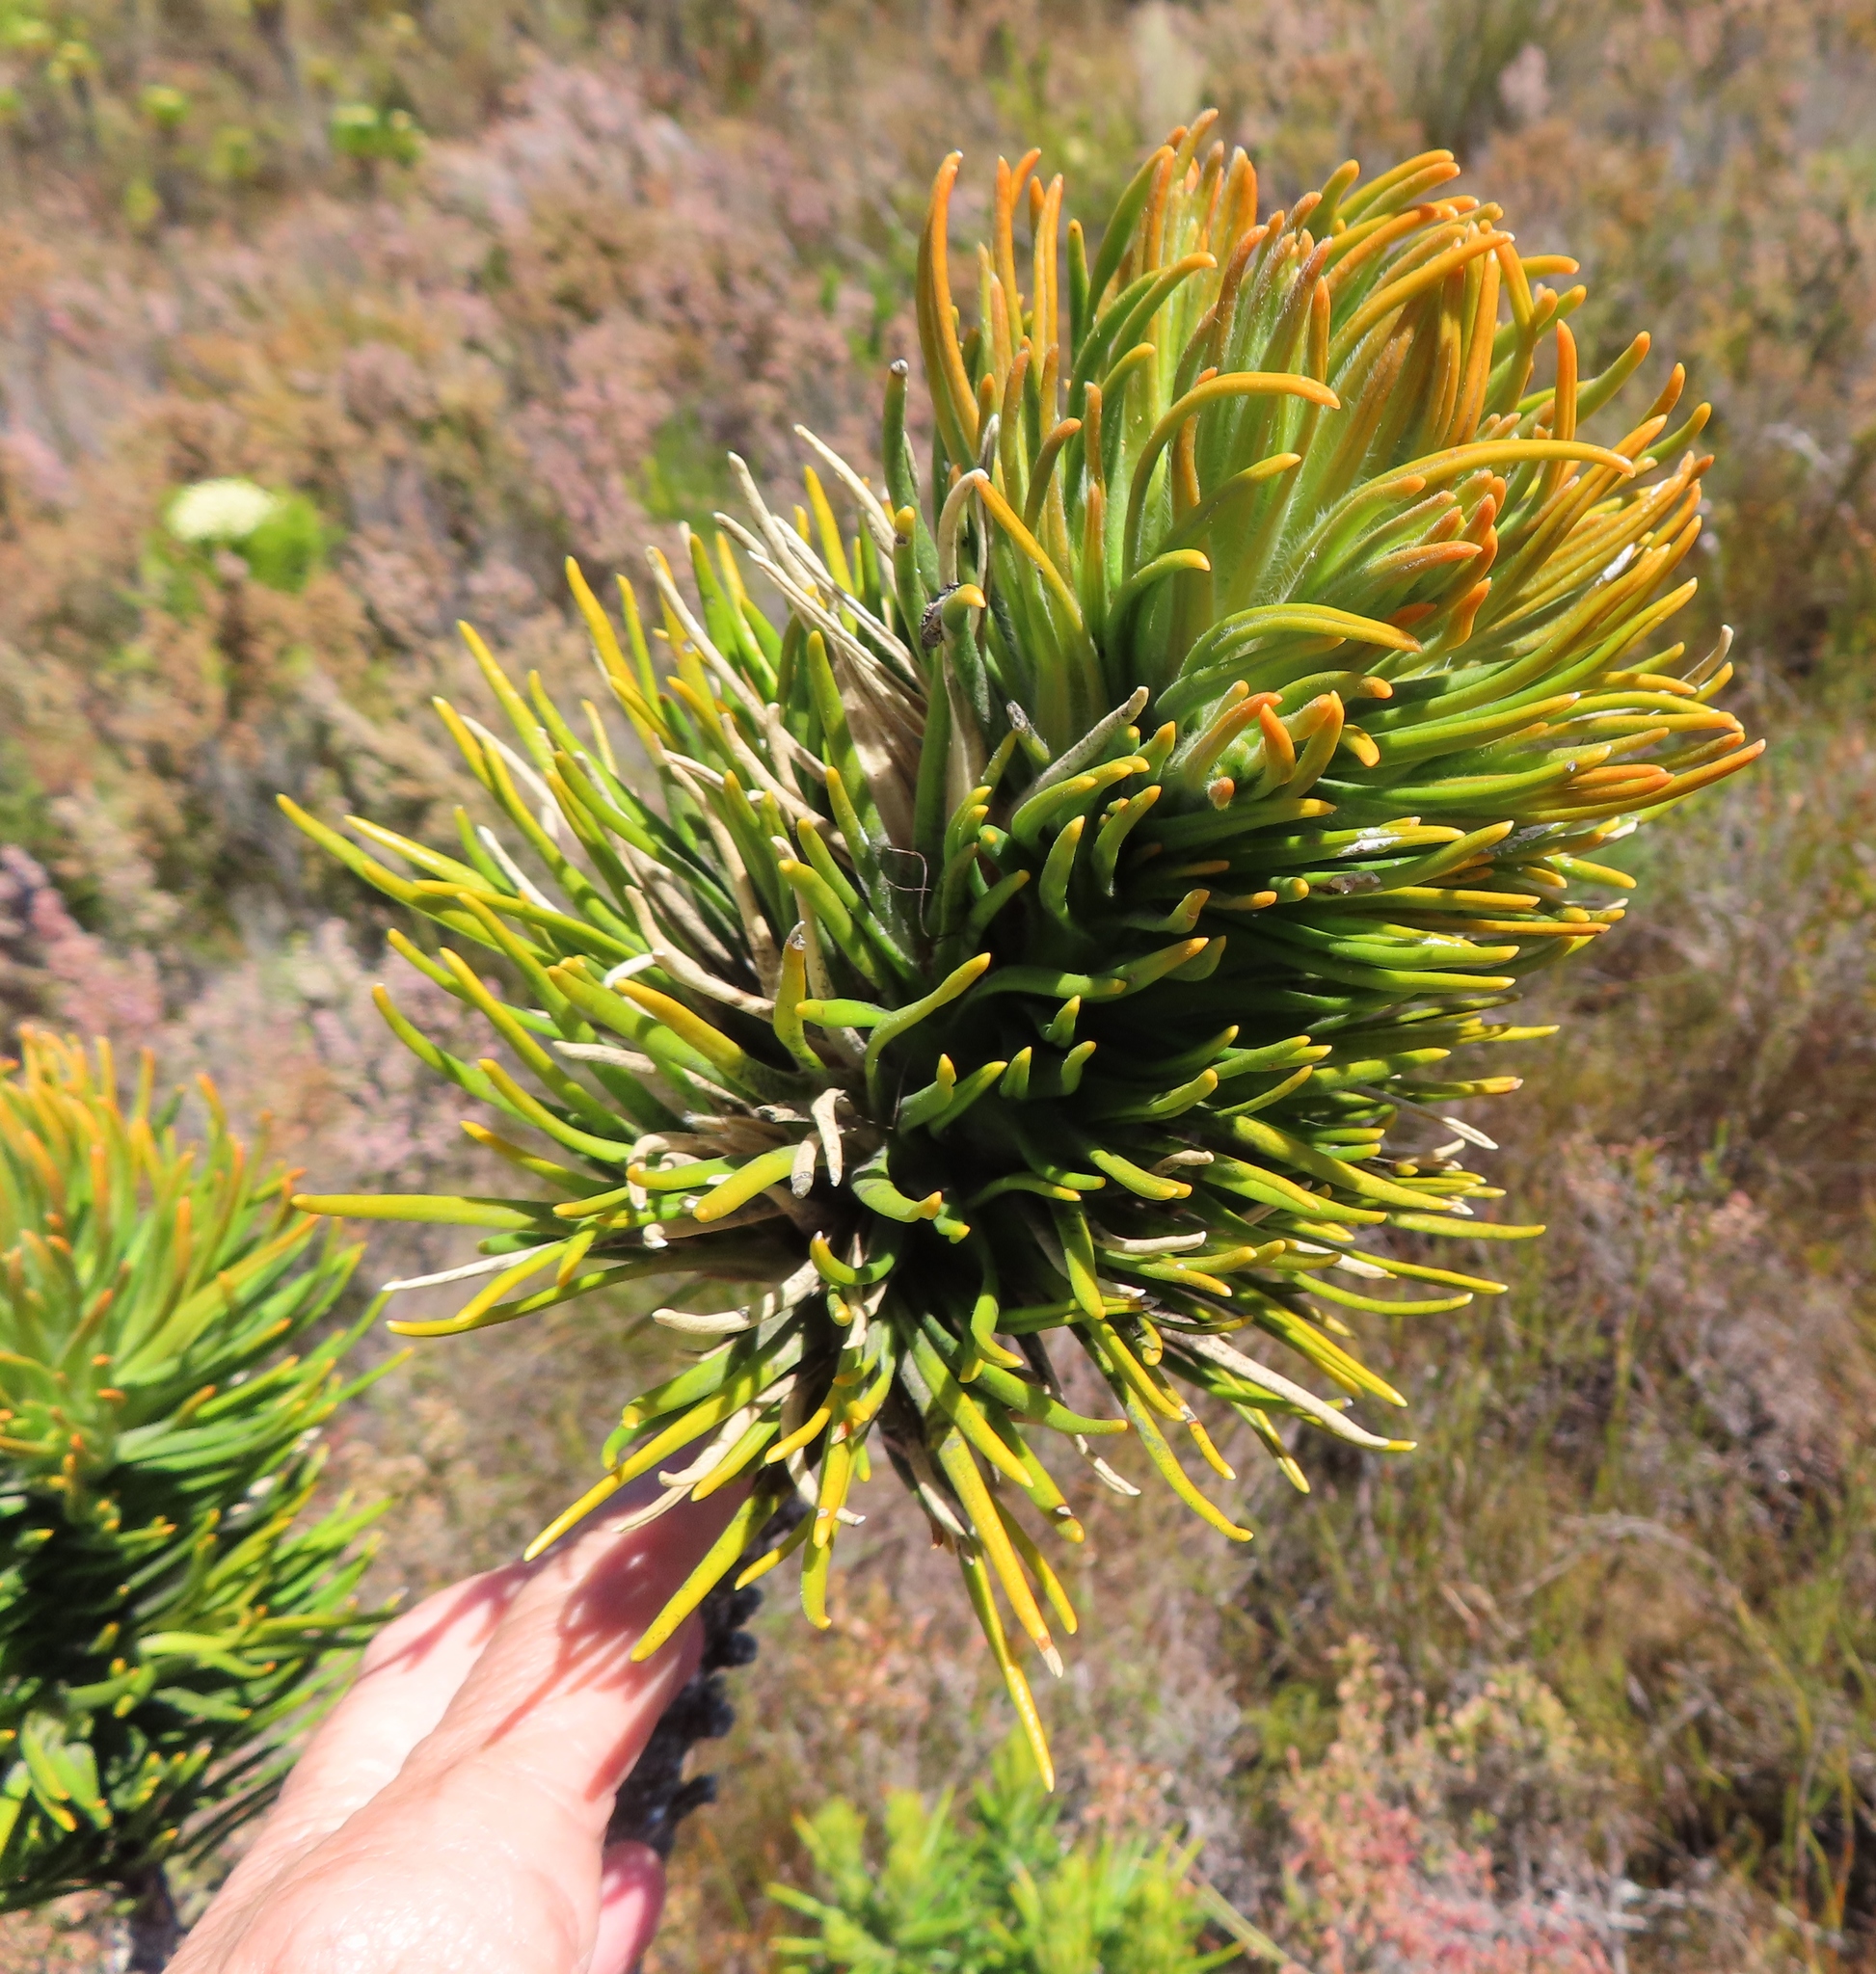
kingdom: Plantae
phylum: Tracheophyta
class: Magnoliopsida
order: Lamiales
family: Stilbaceae
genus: Retzia
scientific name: Retzia capensis
